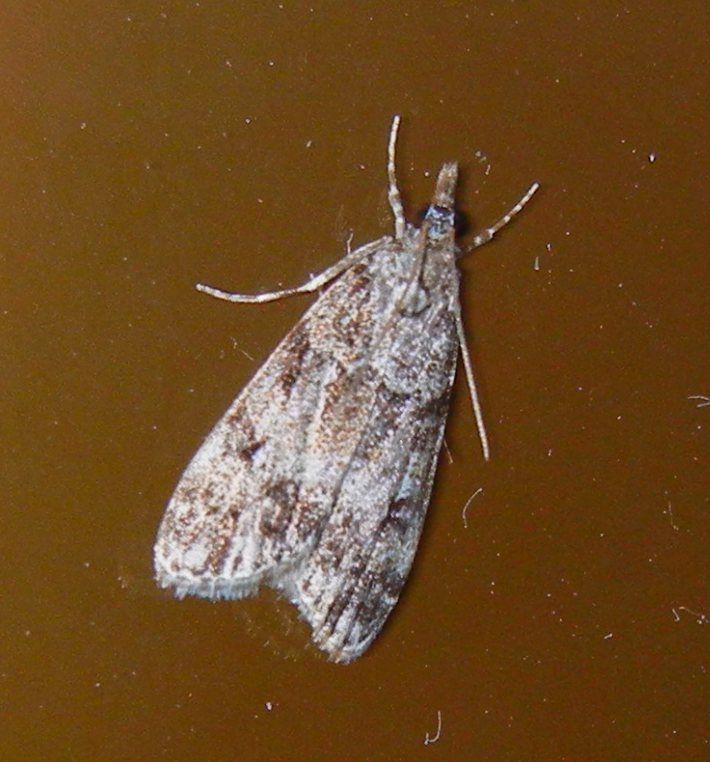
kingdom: Animalia
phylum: Arthropoda
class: Insecta
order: Lepidoptera
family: Crambidae
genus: Eudonia
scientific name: Eudonia lacustrata
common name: Little grey
